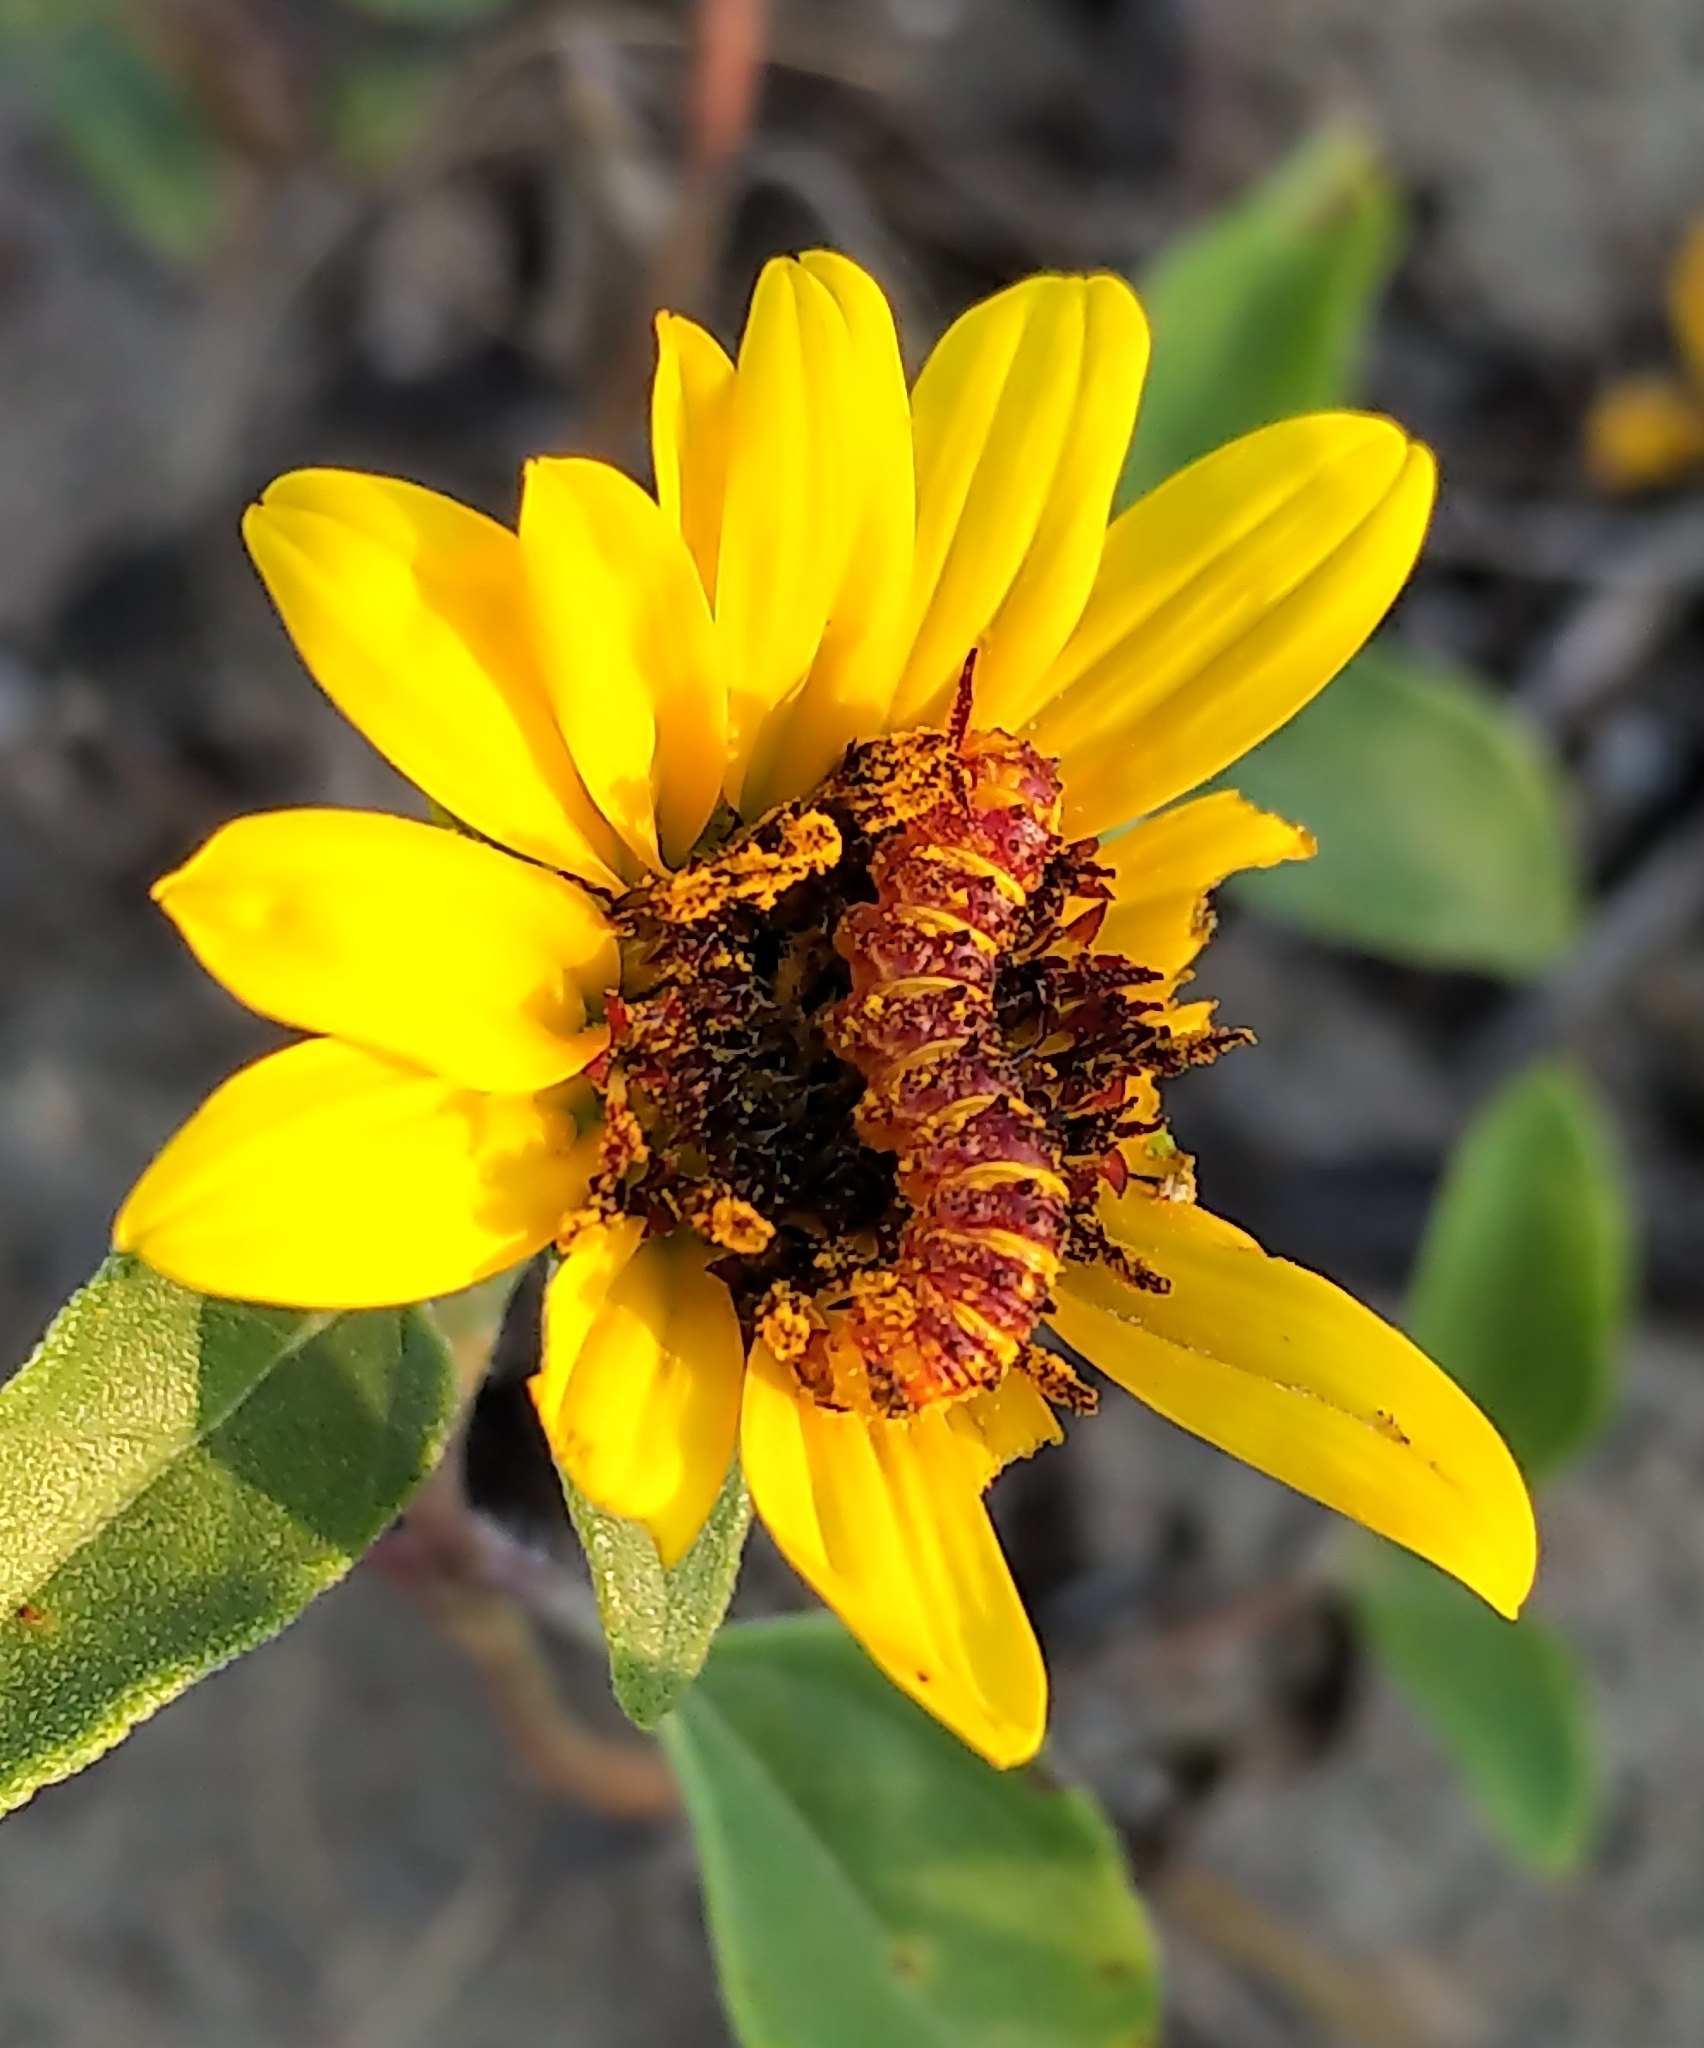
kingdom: Animalia
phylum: Arthropoda
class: Insecta
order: Lepidoptera
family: Noctuidae
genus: Stiria
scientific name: Stiria rugifrons
